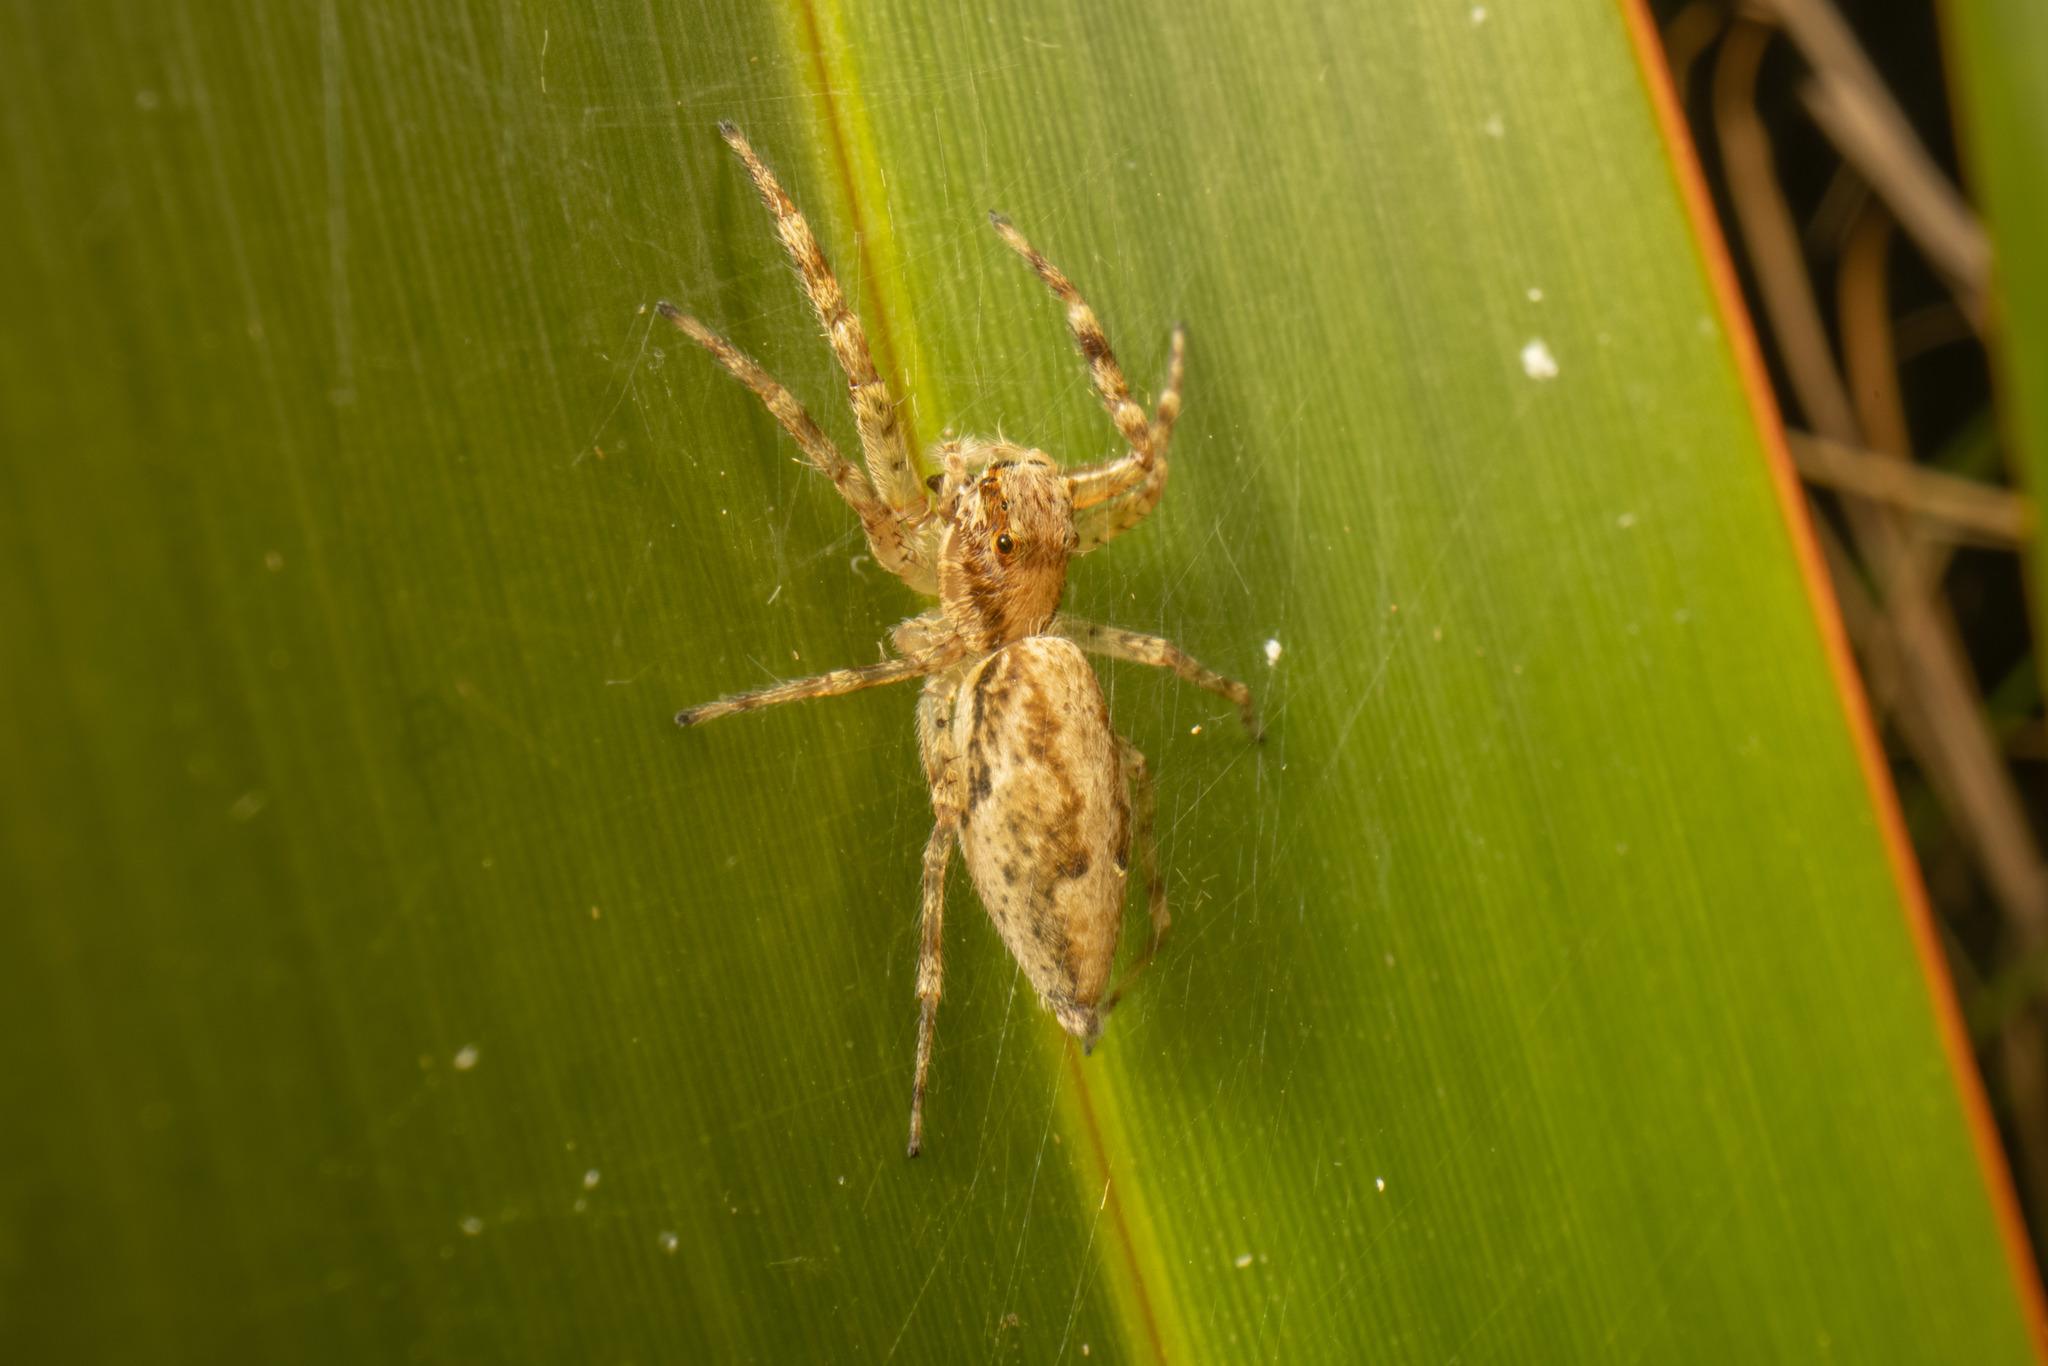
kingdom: Animalia
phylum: Arthropoda
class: Arachnida
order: Araneae
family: Salticidae
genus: Helpis
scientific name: Helpis minitabunda
